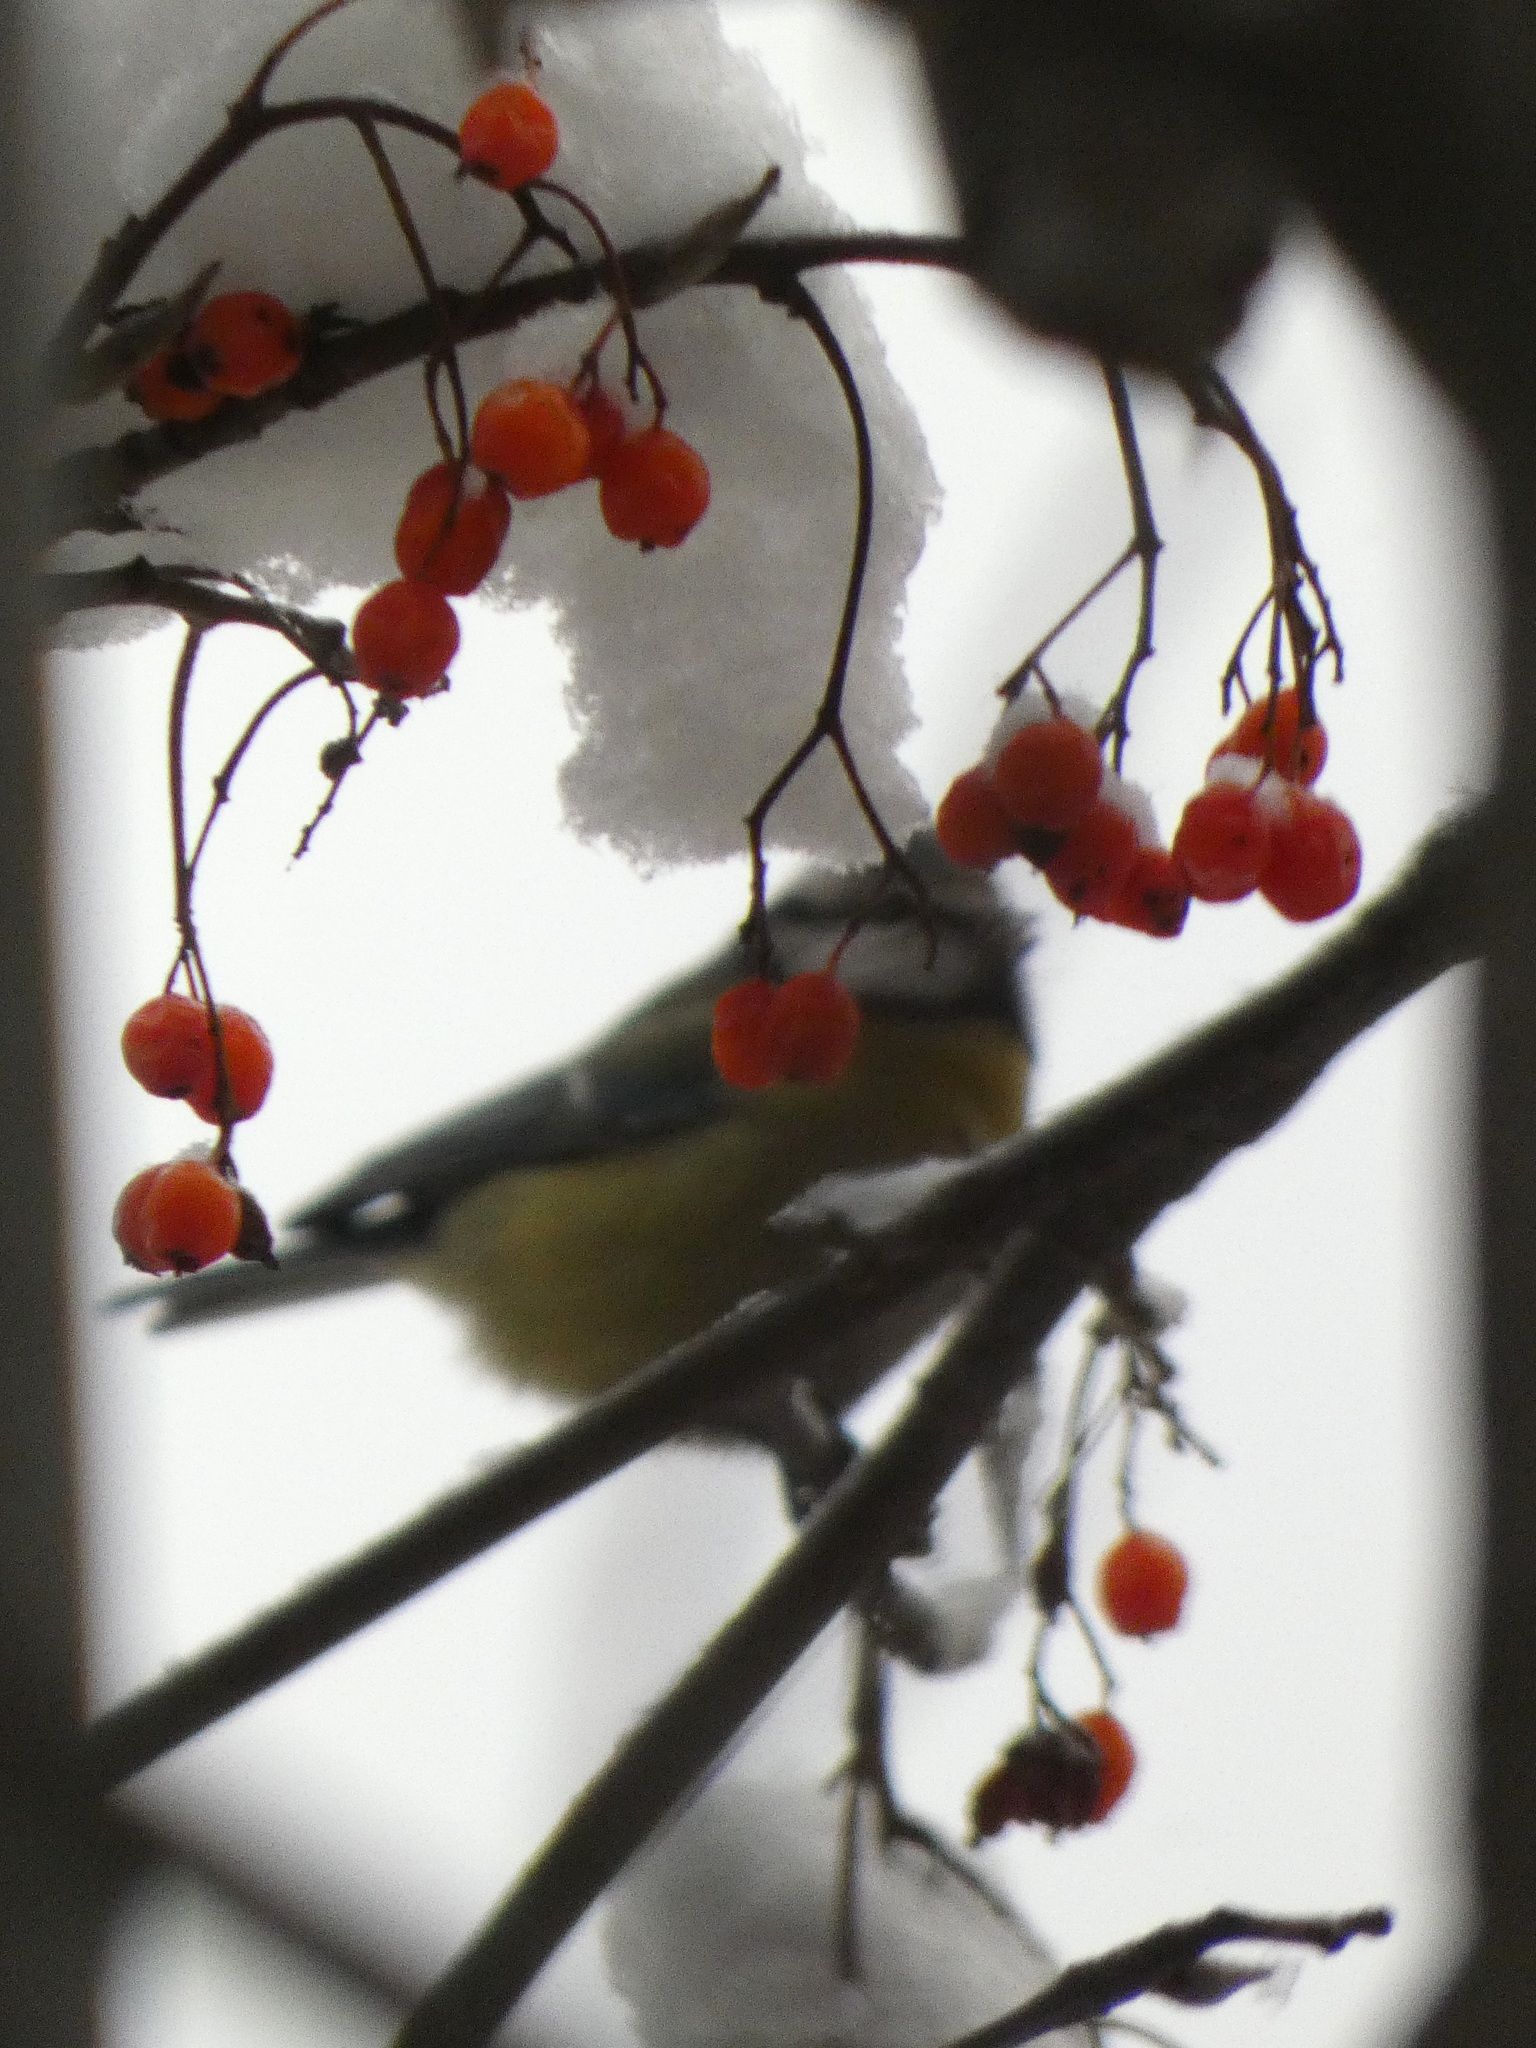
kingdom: Animalia
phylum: Chordata
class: Aves
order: Passeriformes
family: Paridae
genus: Cyanistes
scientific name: Cyanistes caeruleus
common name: Eurasian blue tit
